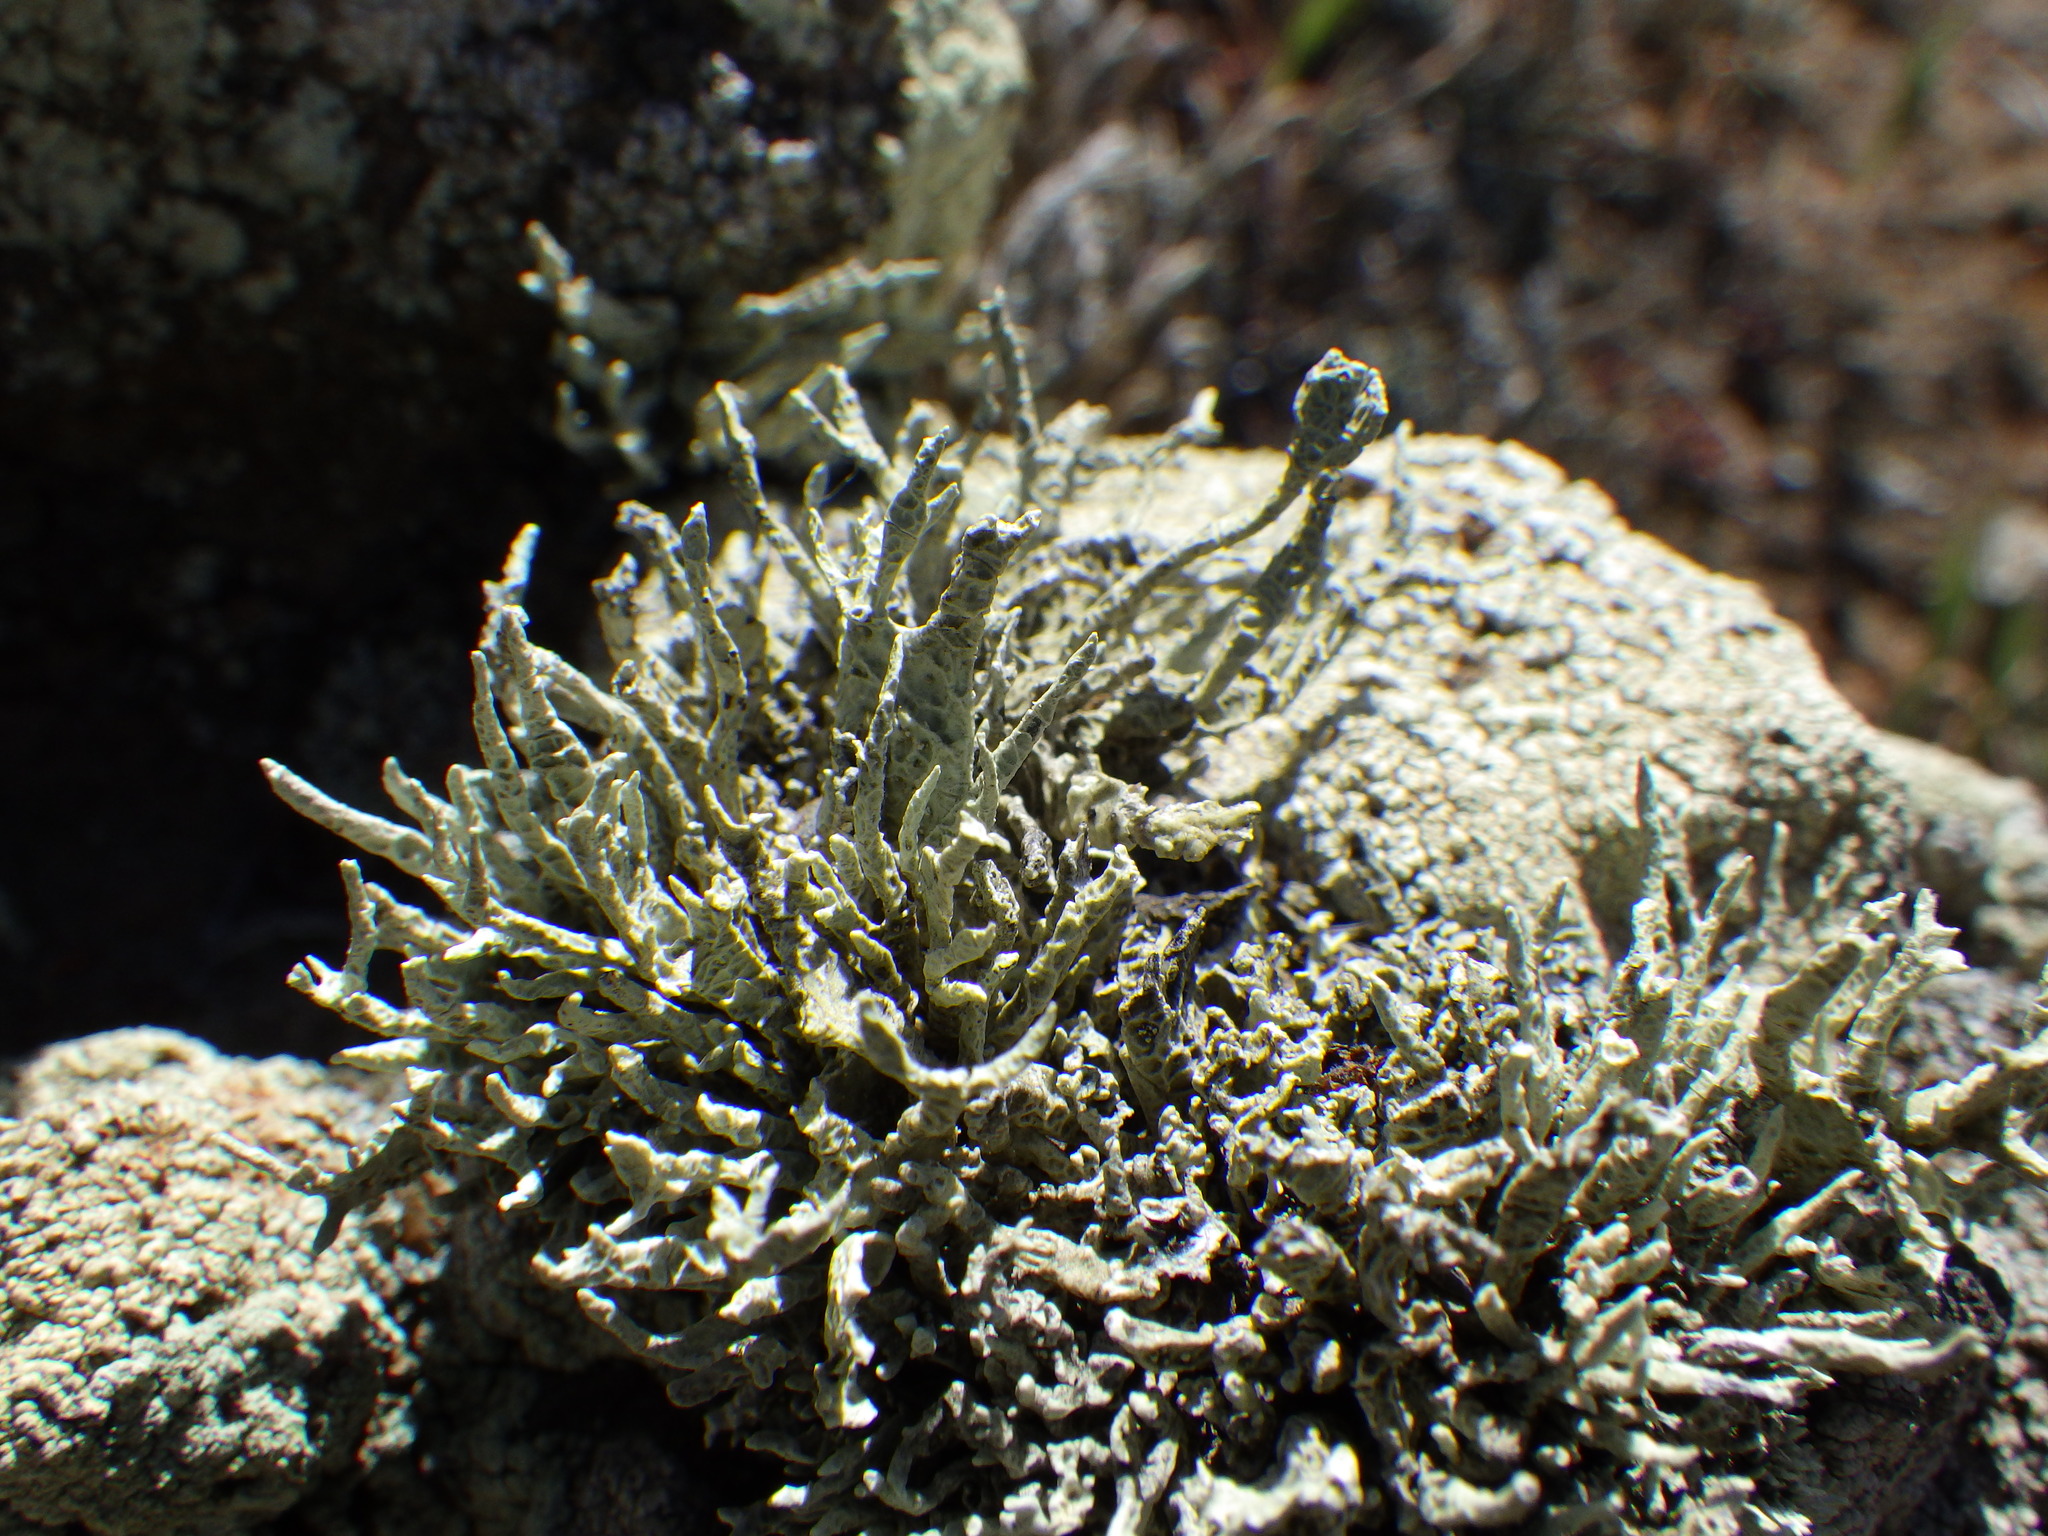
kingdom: Fungi
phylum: Ascomycota
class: Lecanoromycetes
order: Lecanorales
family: Ramalinaceae
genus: Niebla
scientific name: Niebla homalea
